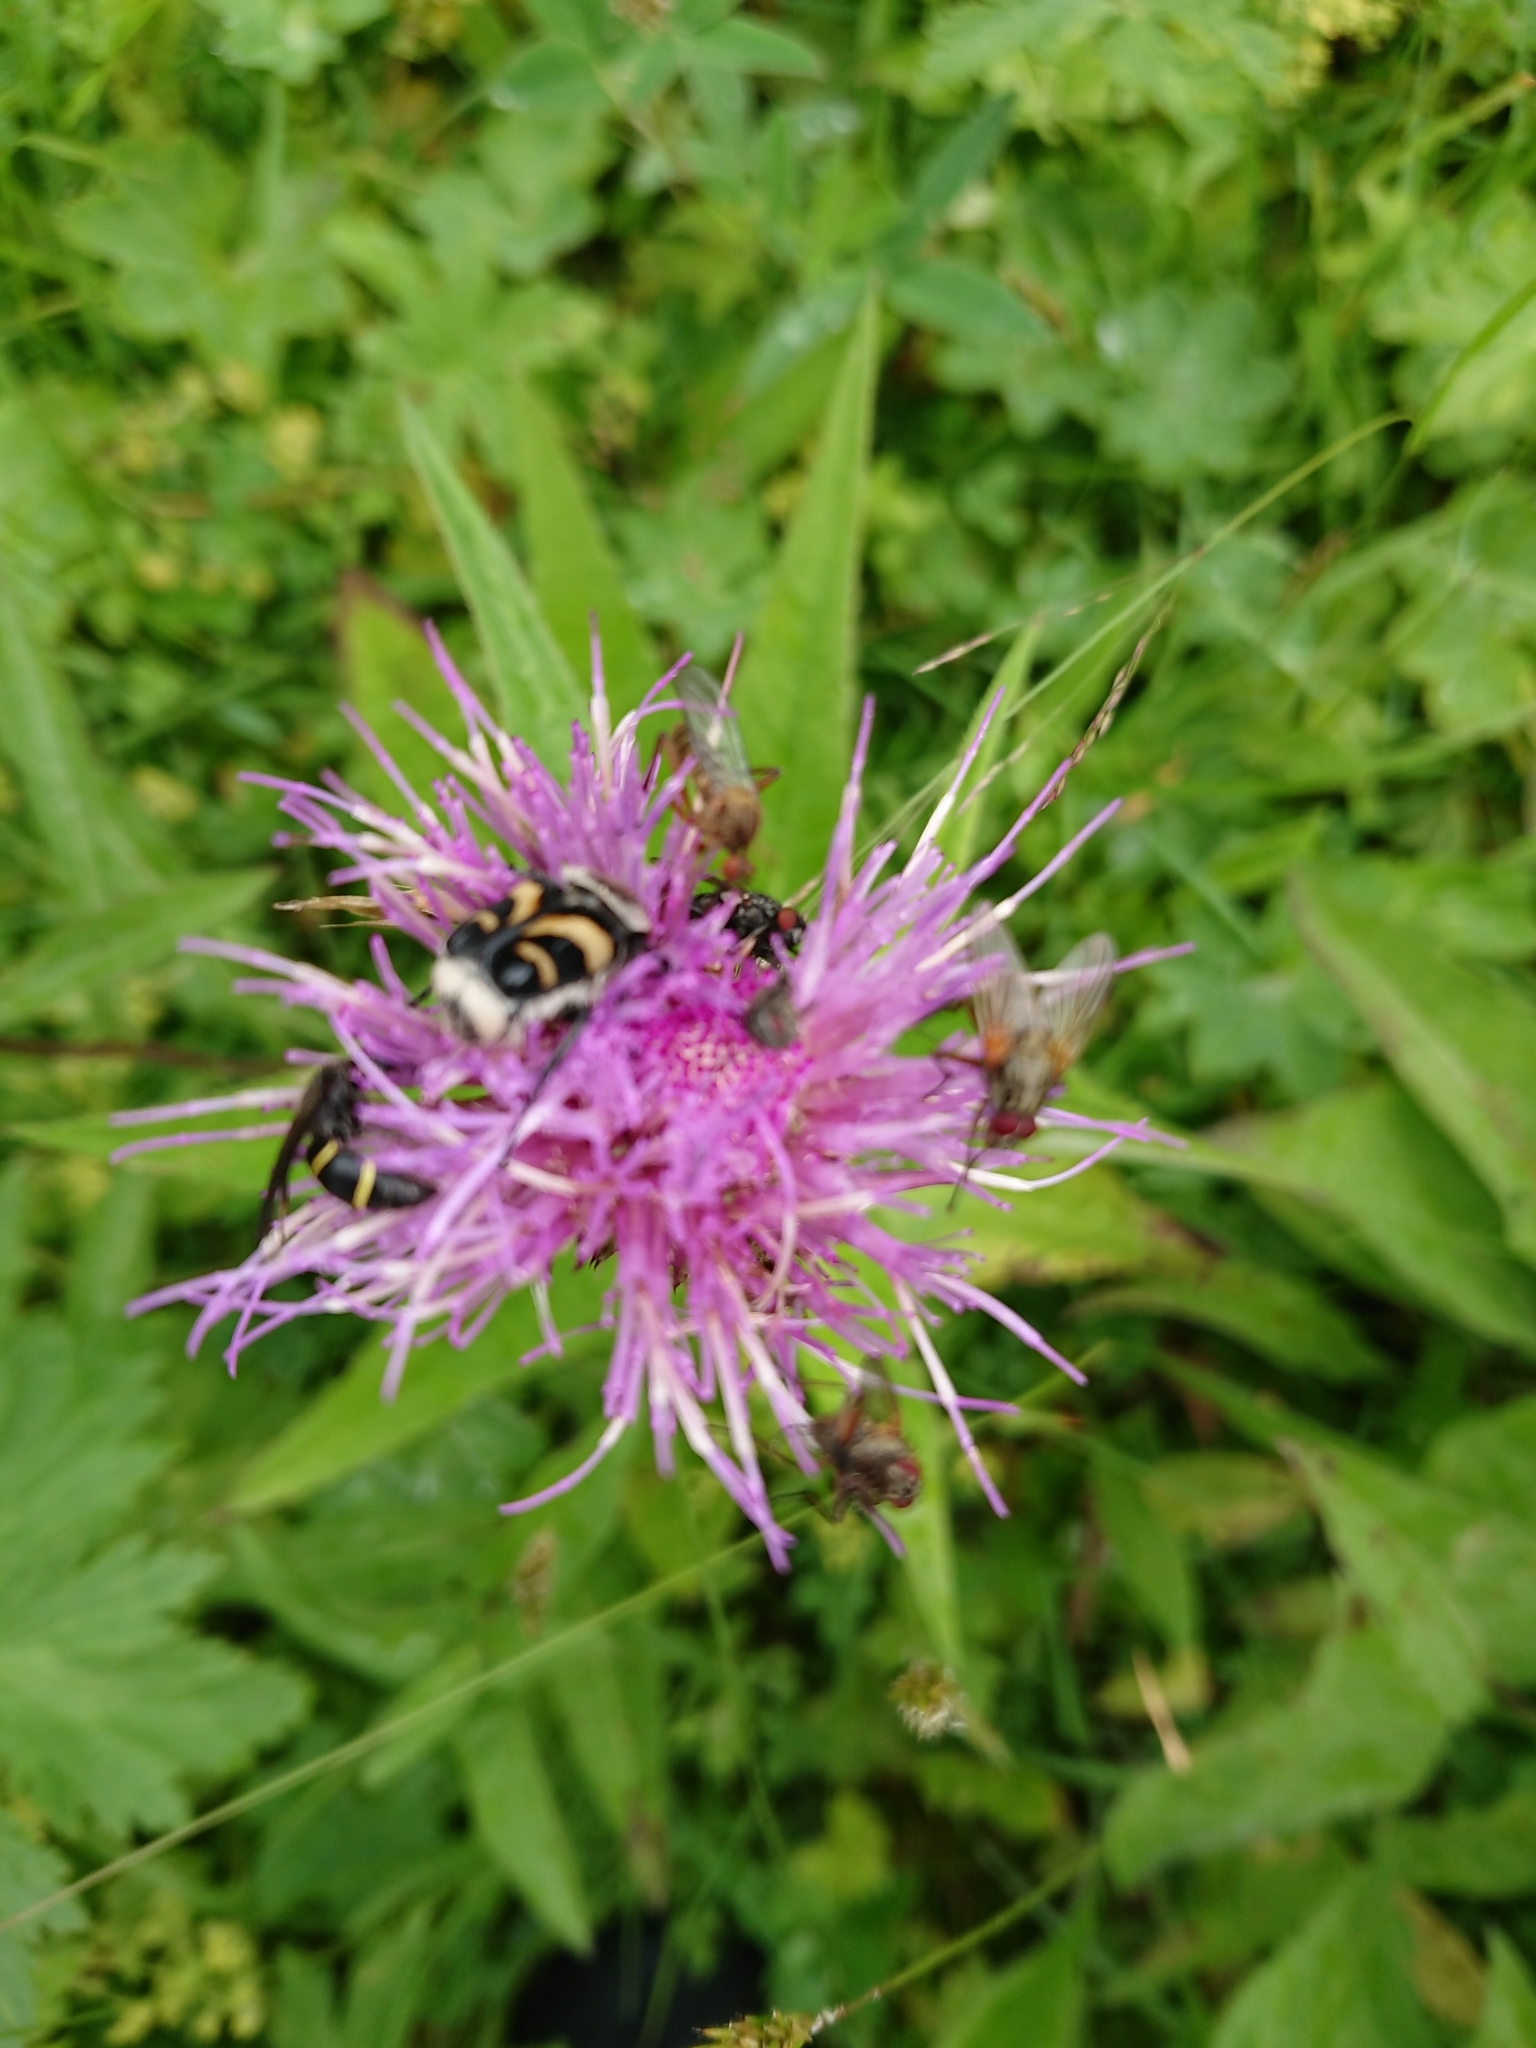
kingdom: Plantae
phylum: Tracheophyta
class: Magnoliopsida
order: Asterales
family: Asteraceae
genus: Cirsium
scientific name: Cirsium heterophyllum
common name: Melancholy thistle
